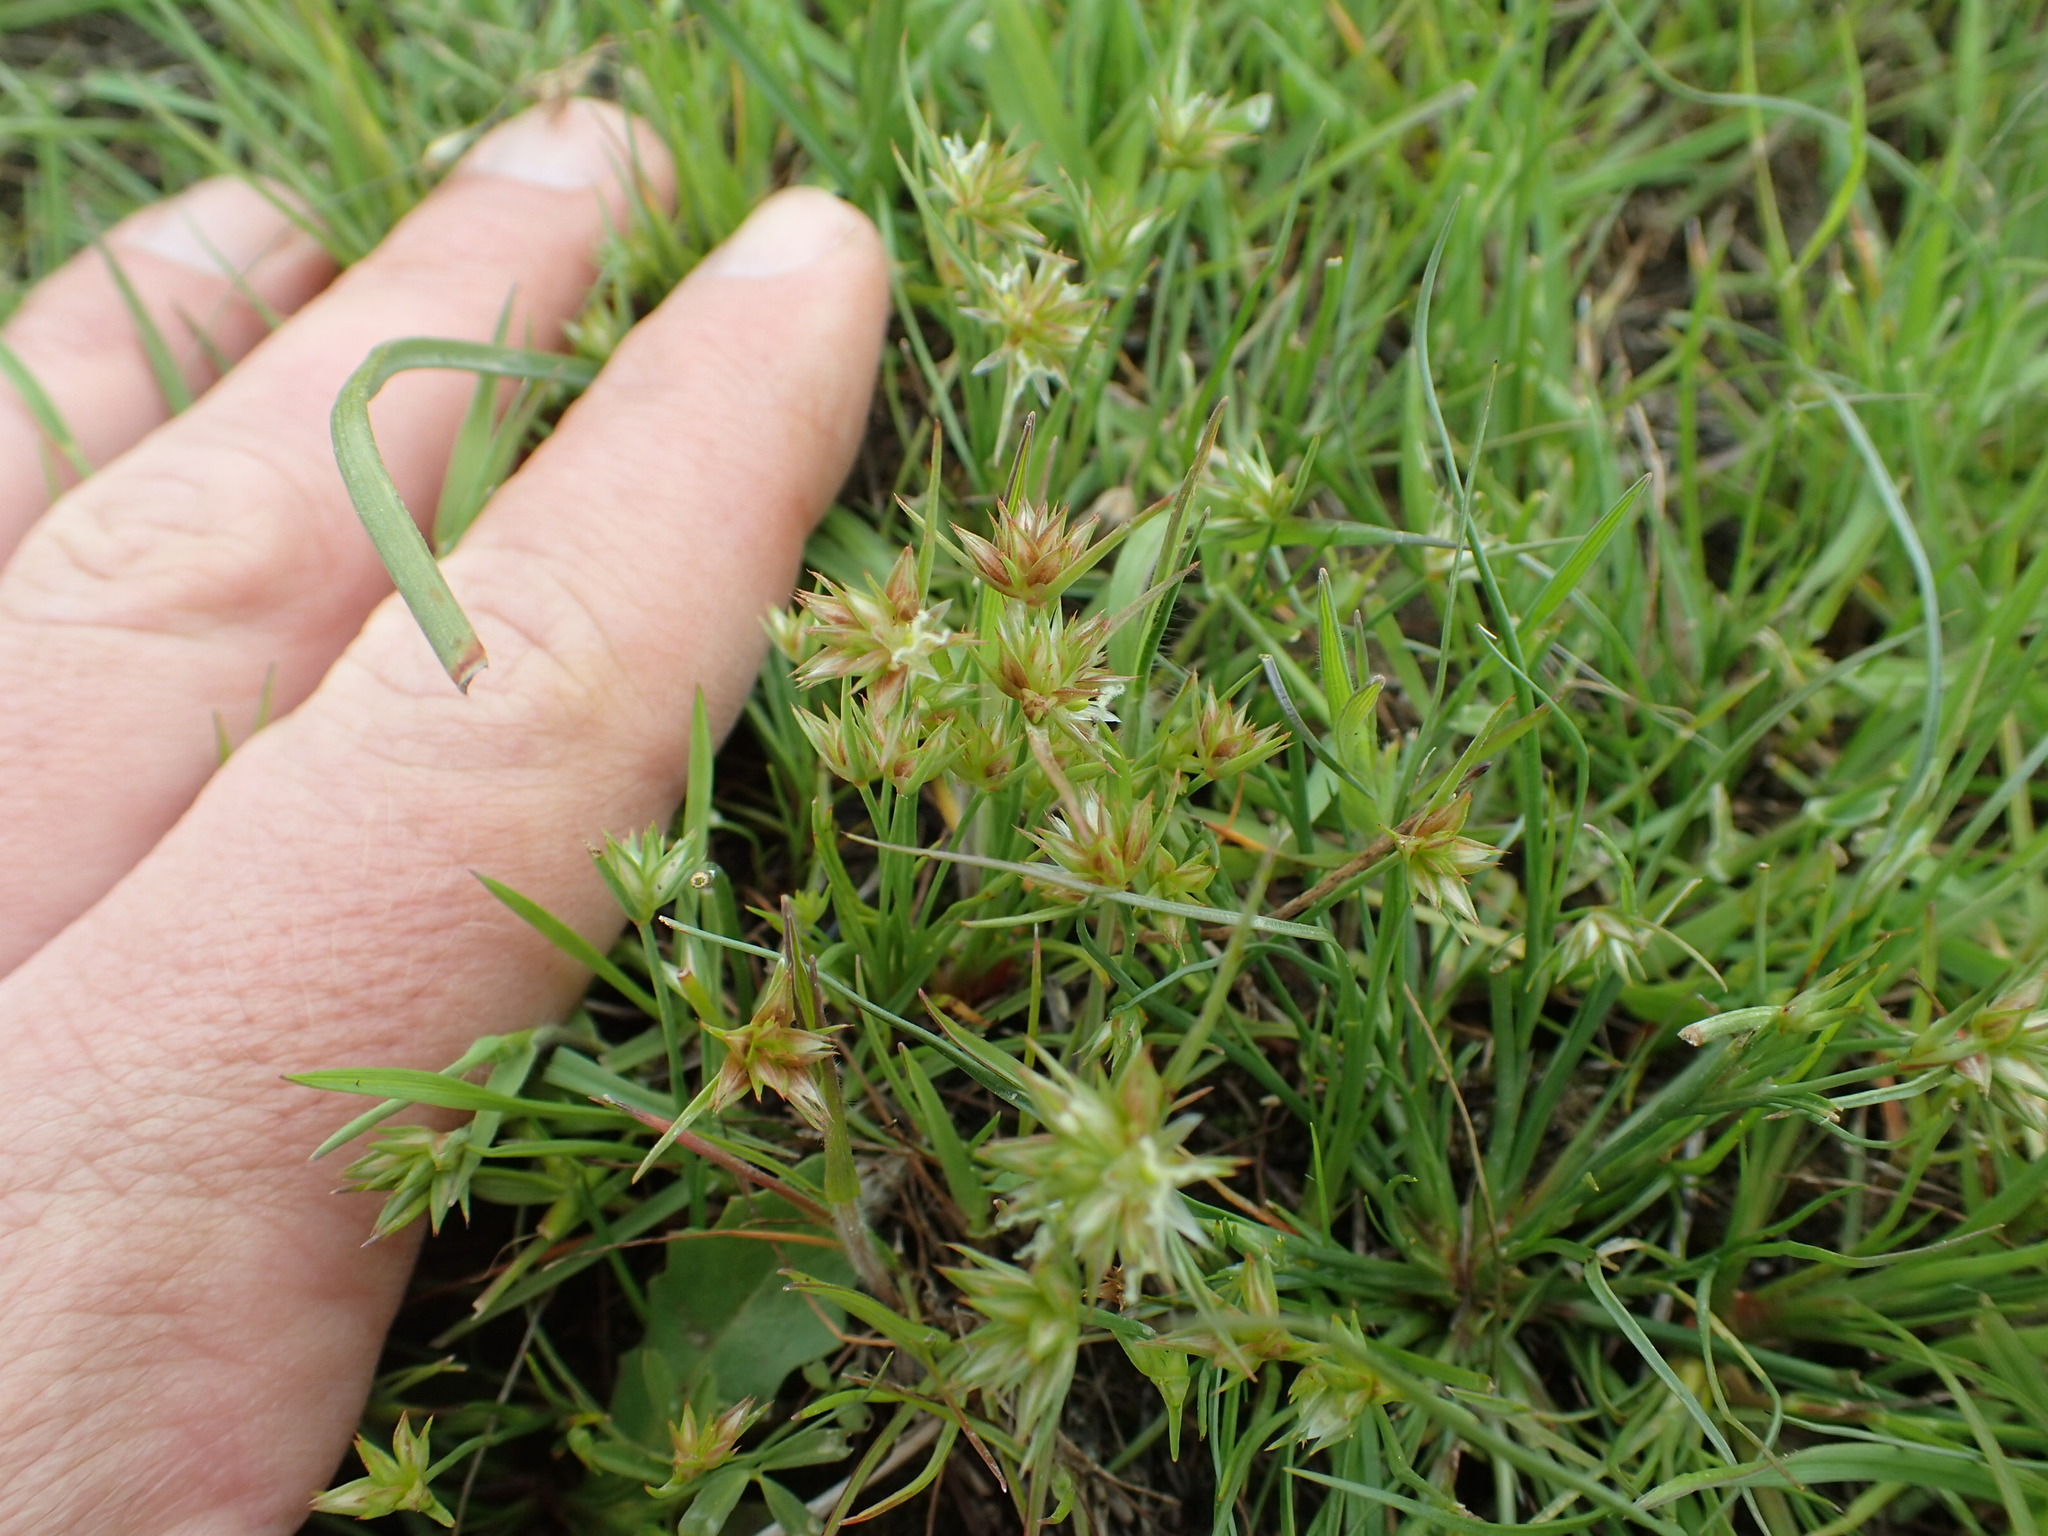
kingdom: Plantae
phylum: Tracheophyta
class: Liliopsida
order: Poales
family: Juncaceae
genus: Juncus
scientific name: Juncus capitatus
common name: Dwarf rush
